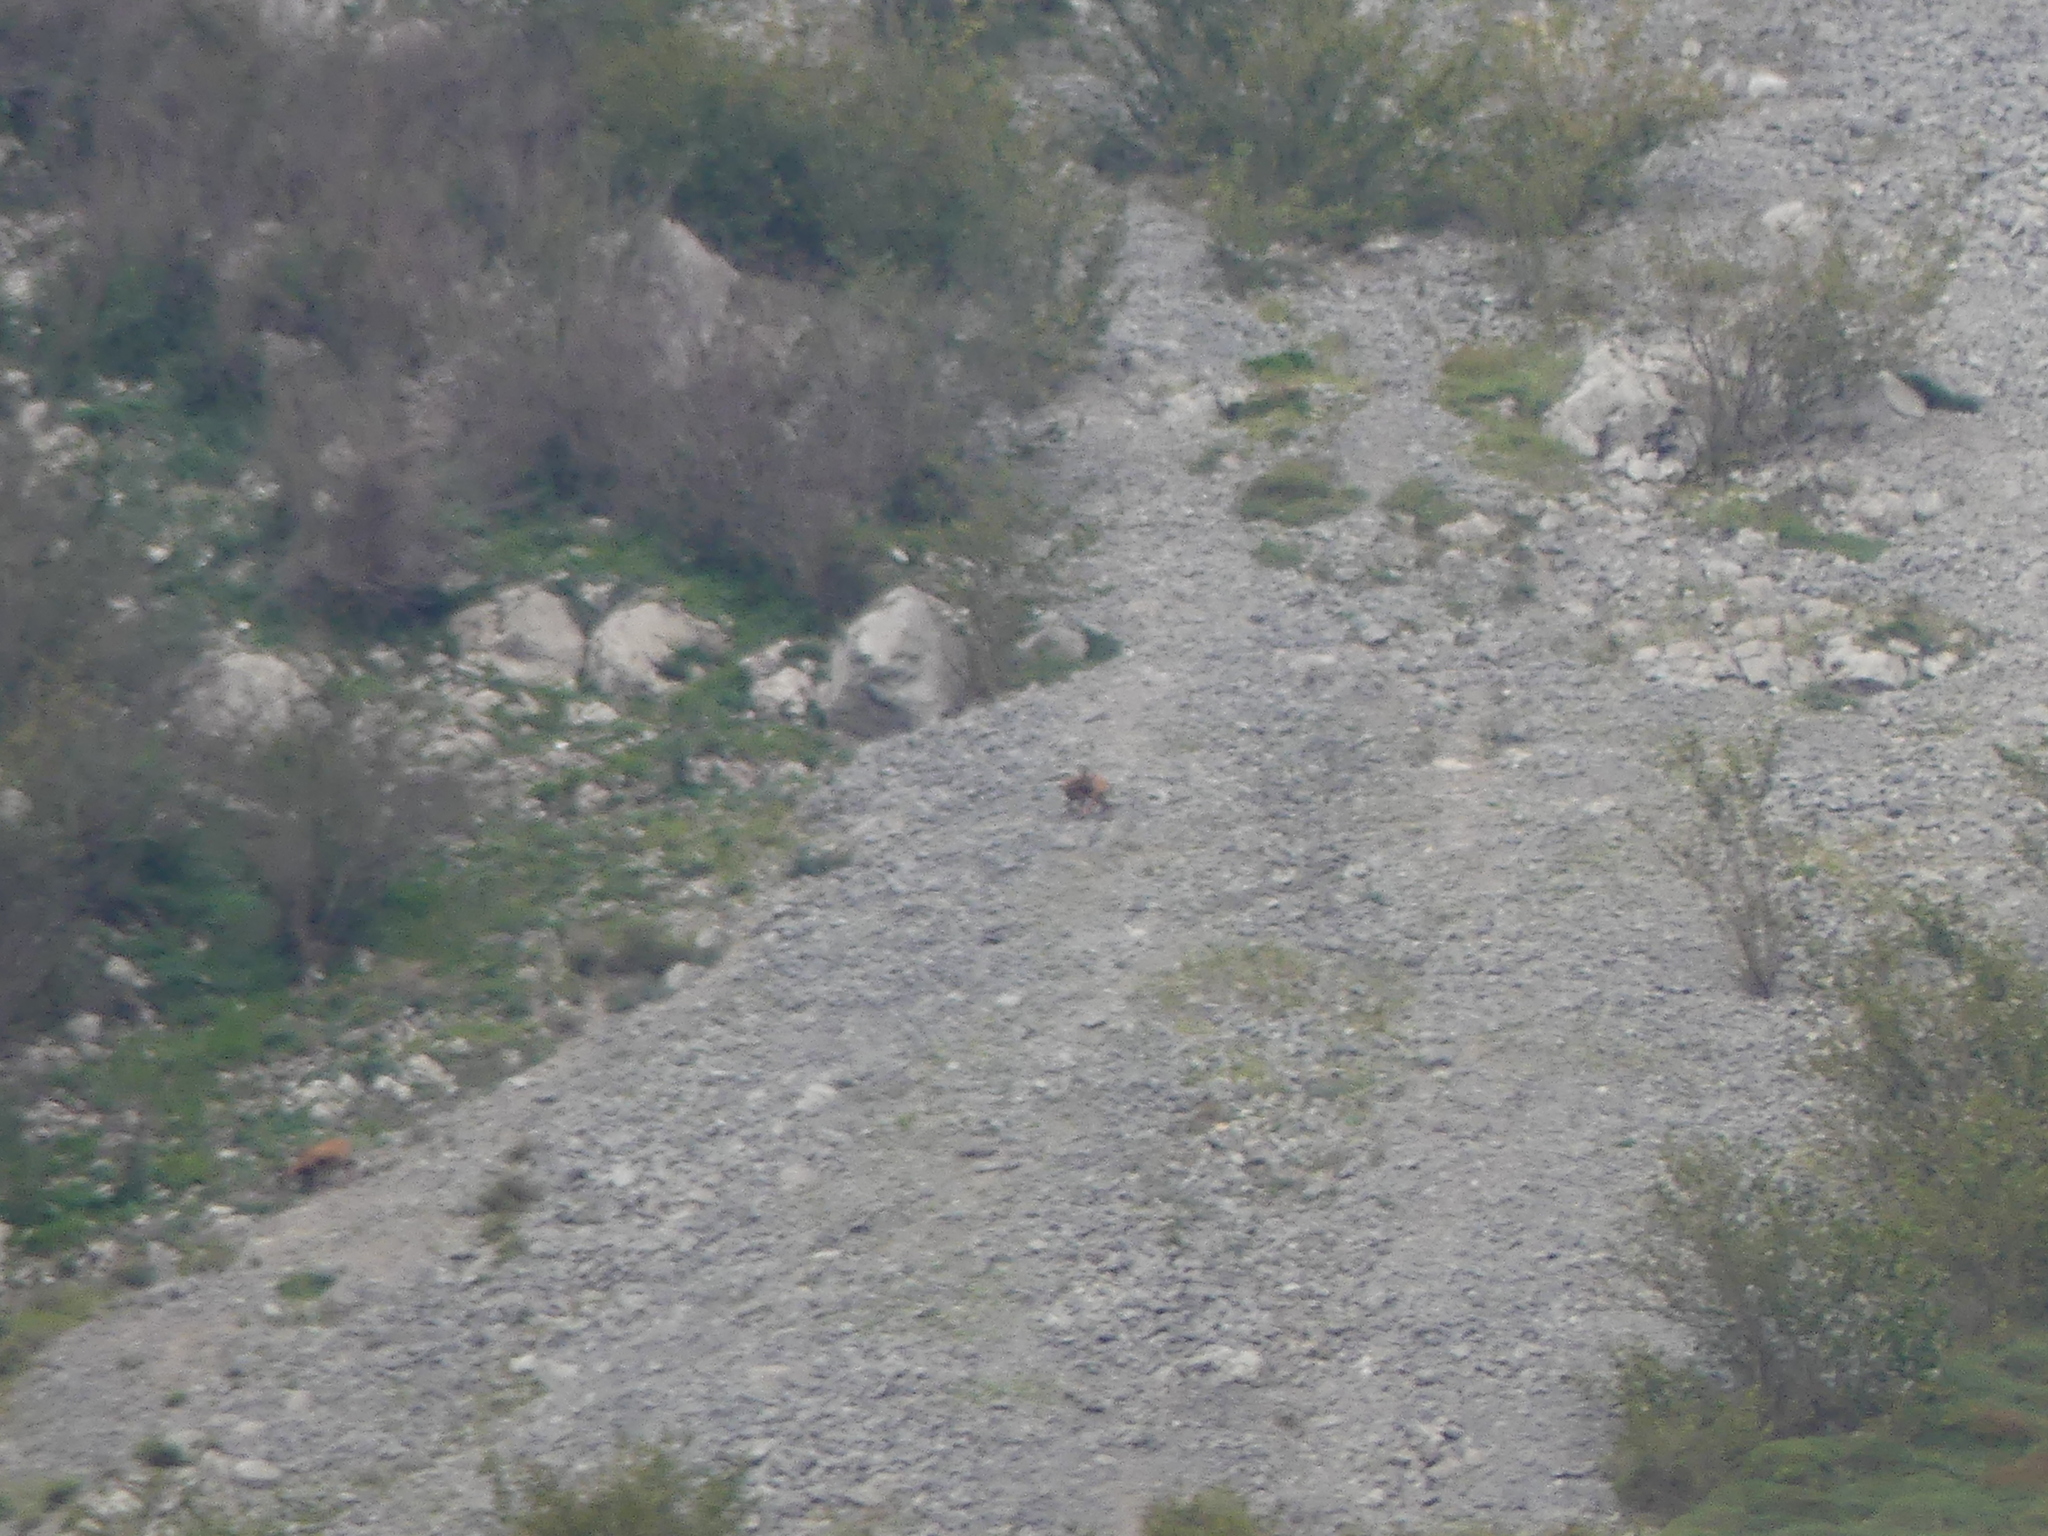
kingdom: Animalia
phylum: Chordata
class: Mammalia
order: Artiodactyla
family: Bovidae
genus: Rupicapra
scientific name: Rupicapra pyrenaica
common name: Pyrenean chamois
